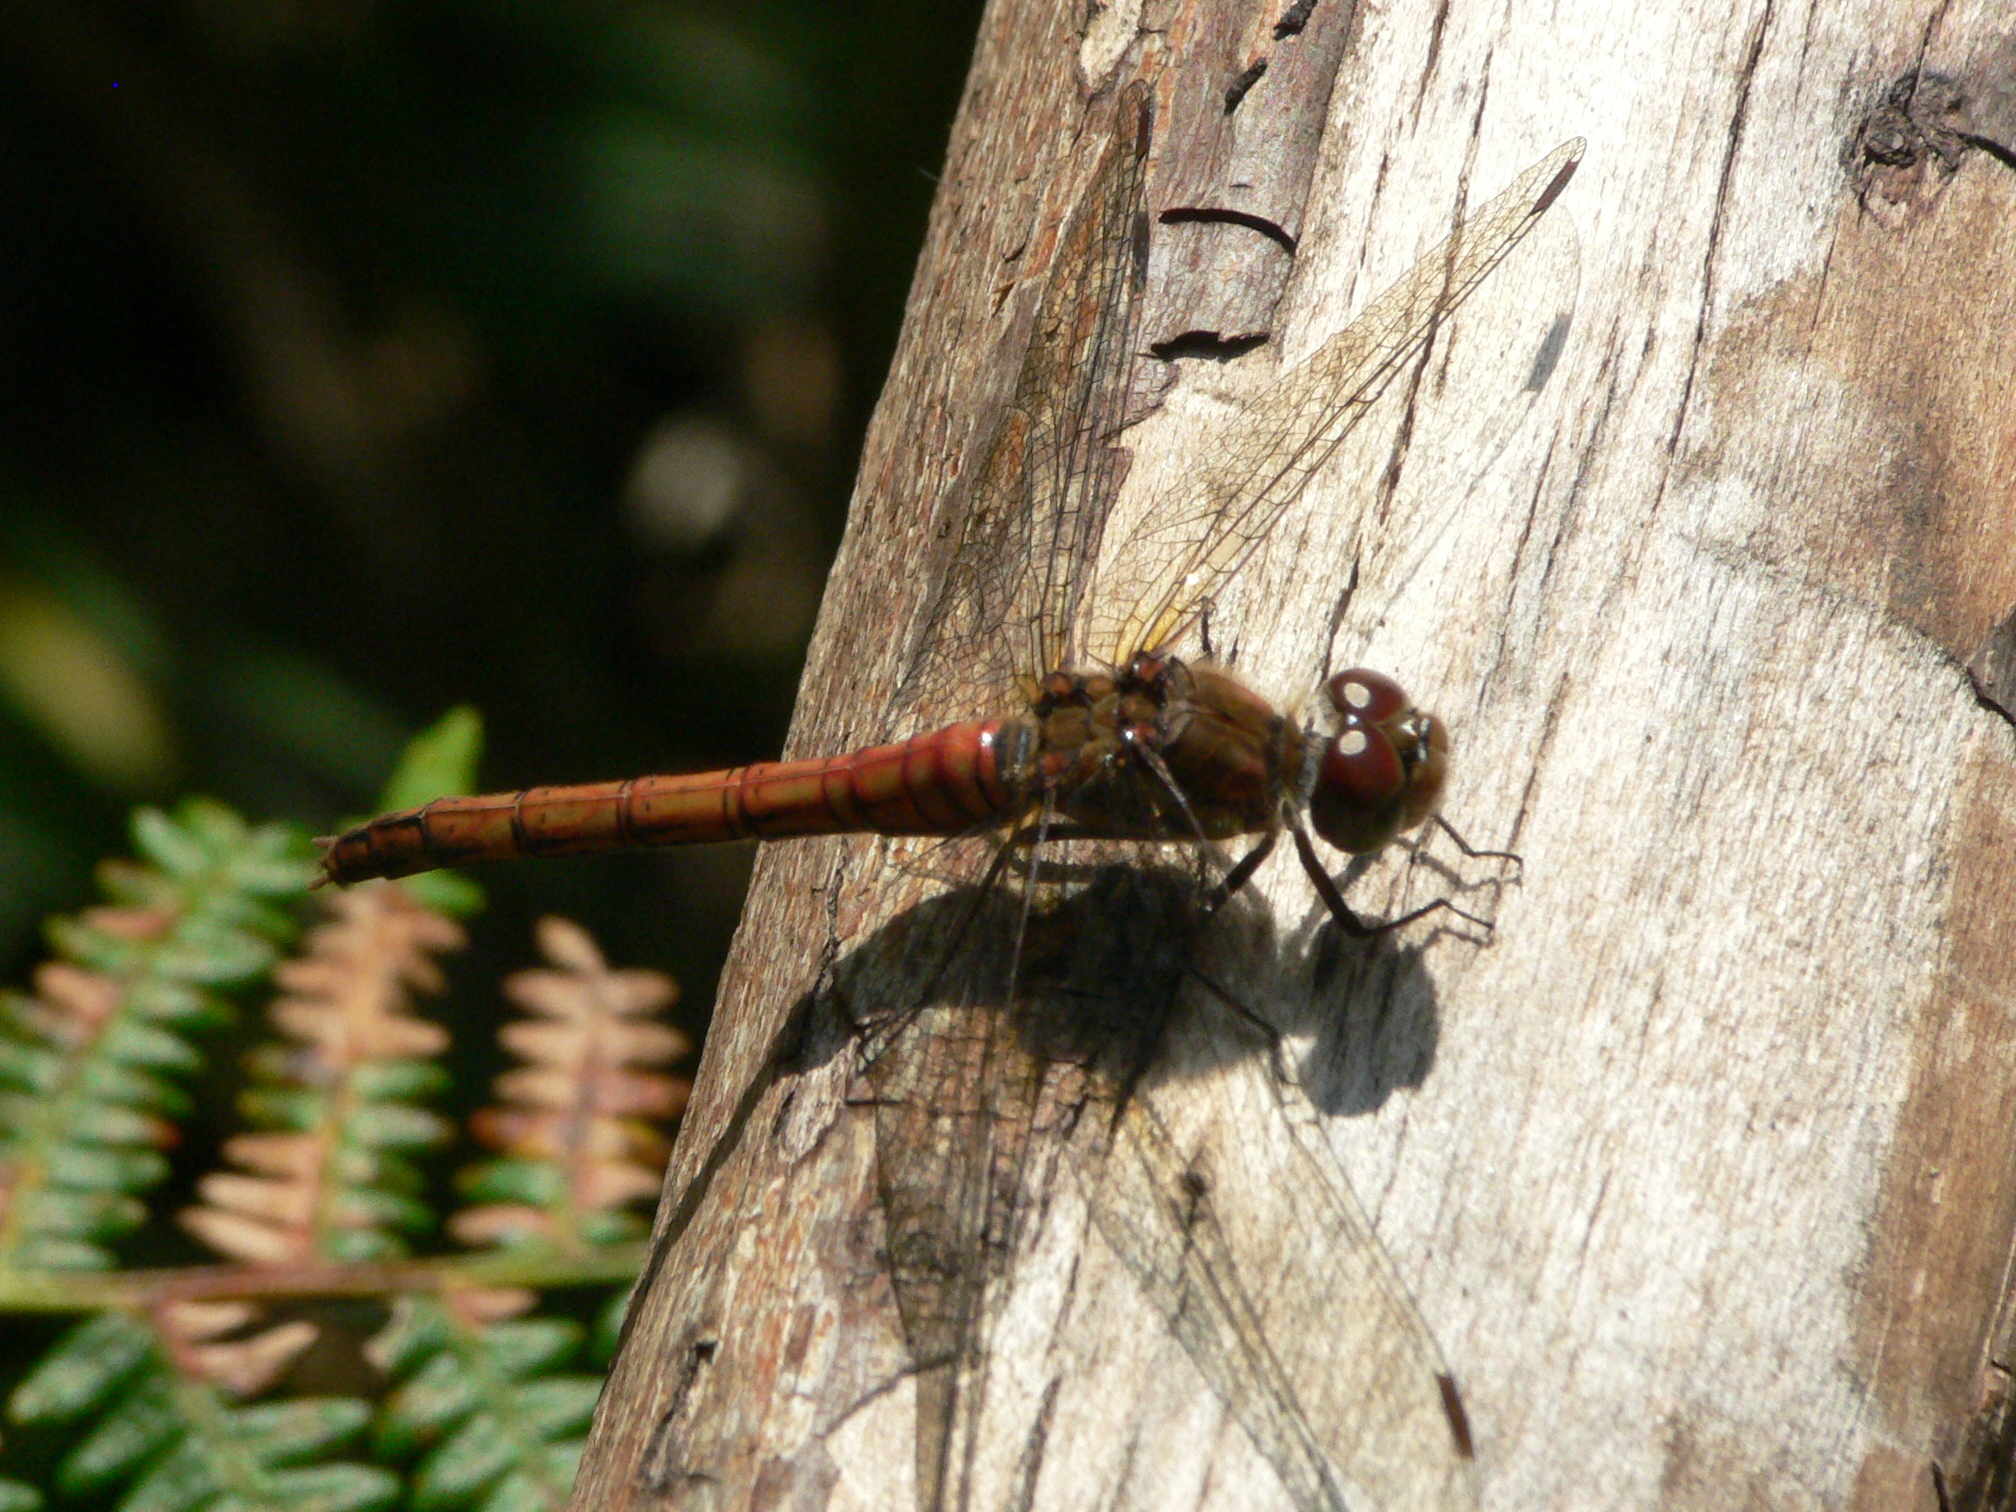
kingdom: Animalia
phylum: Arthropoda
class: Insecta
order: Odonata
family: Libellulidae
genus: Sympetrum
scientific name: Sympetrum striolatum
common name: Common darter
